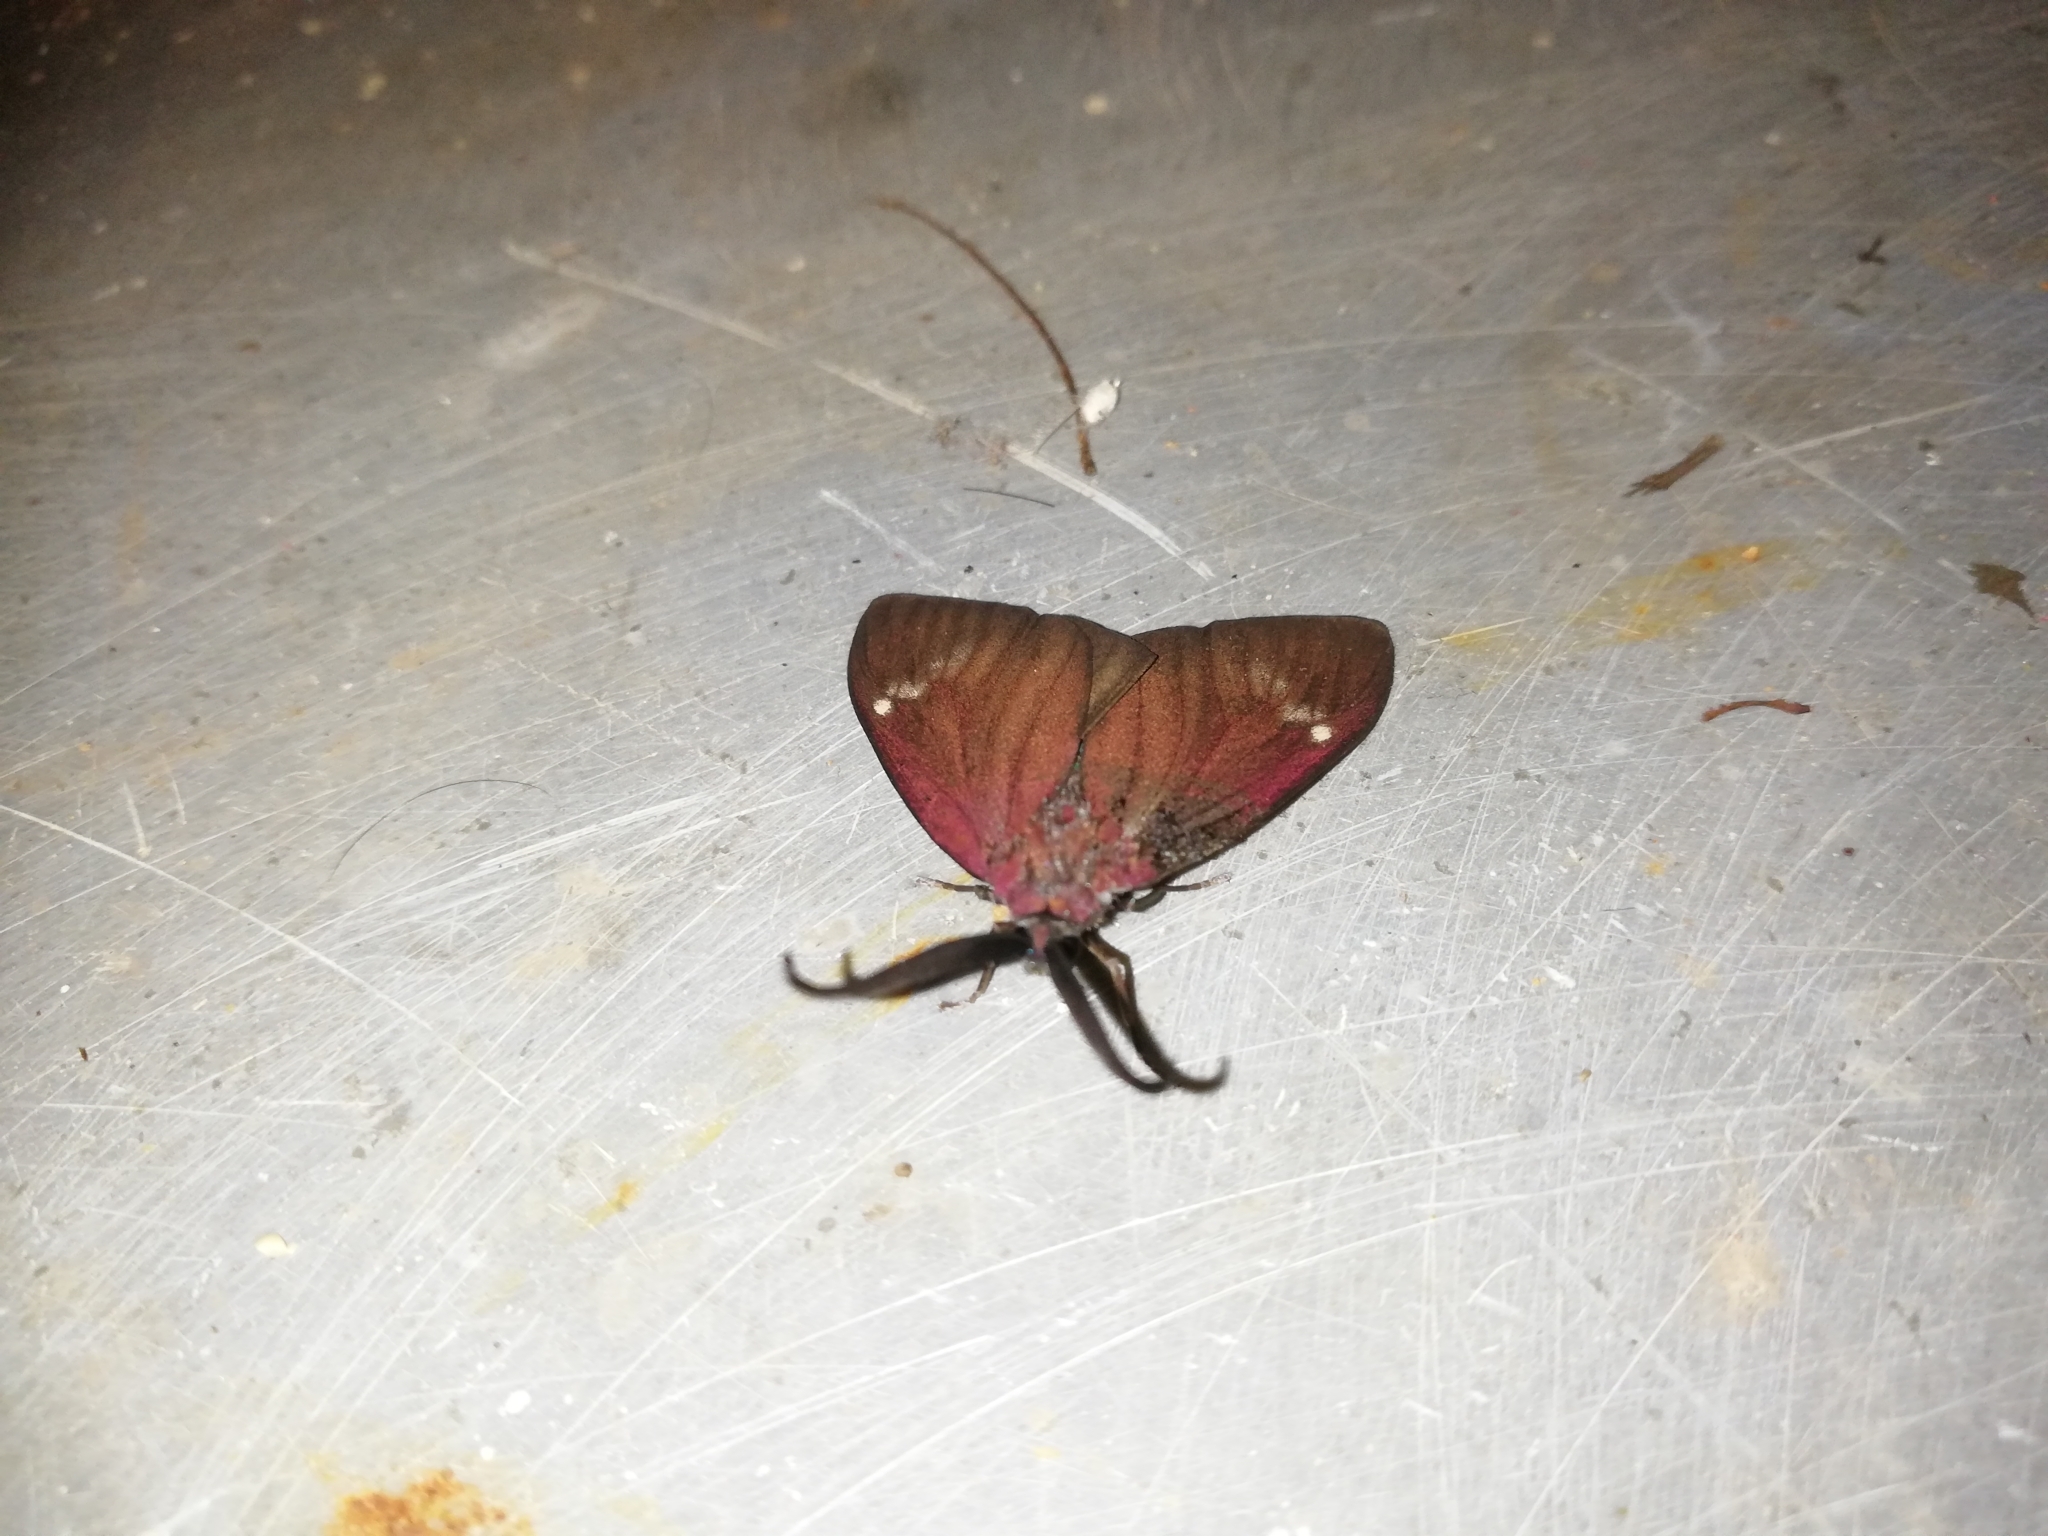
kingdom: Animalia
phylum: Arthropoda
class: Insecta
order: Lepidoptera
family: Zygaenidae
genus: Cyclosia
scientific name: Cyclosia
